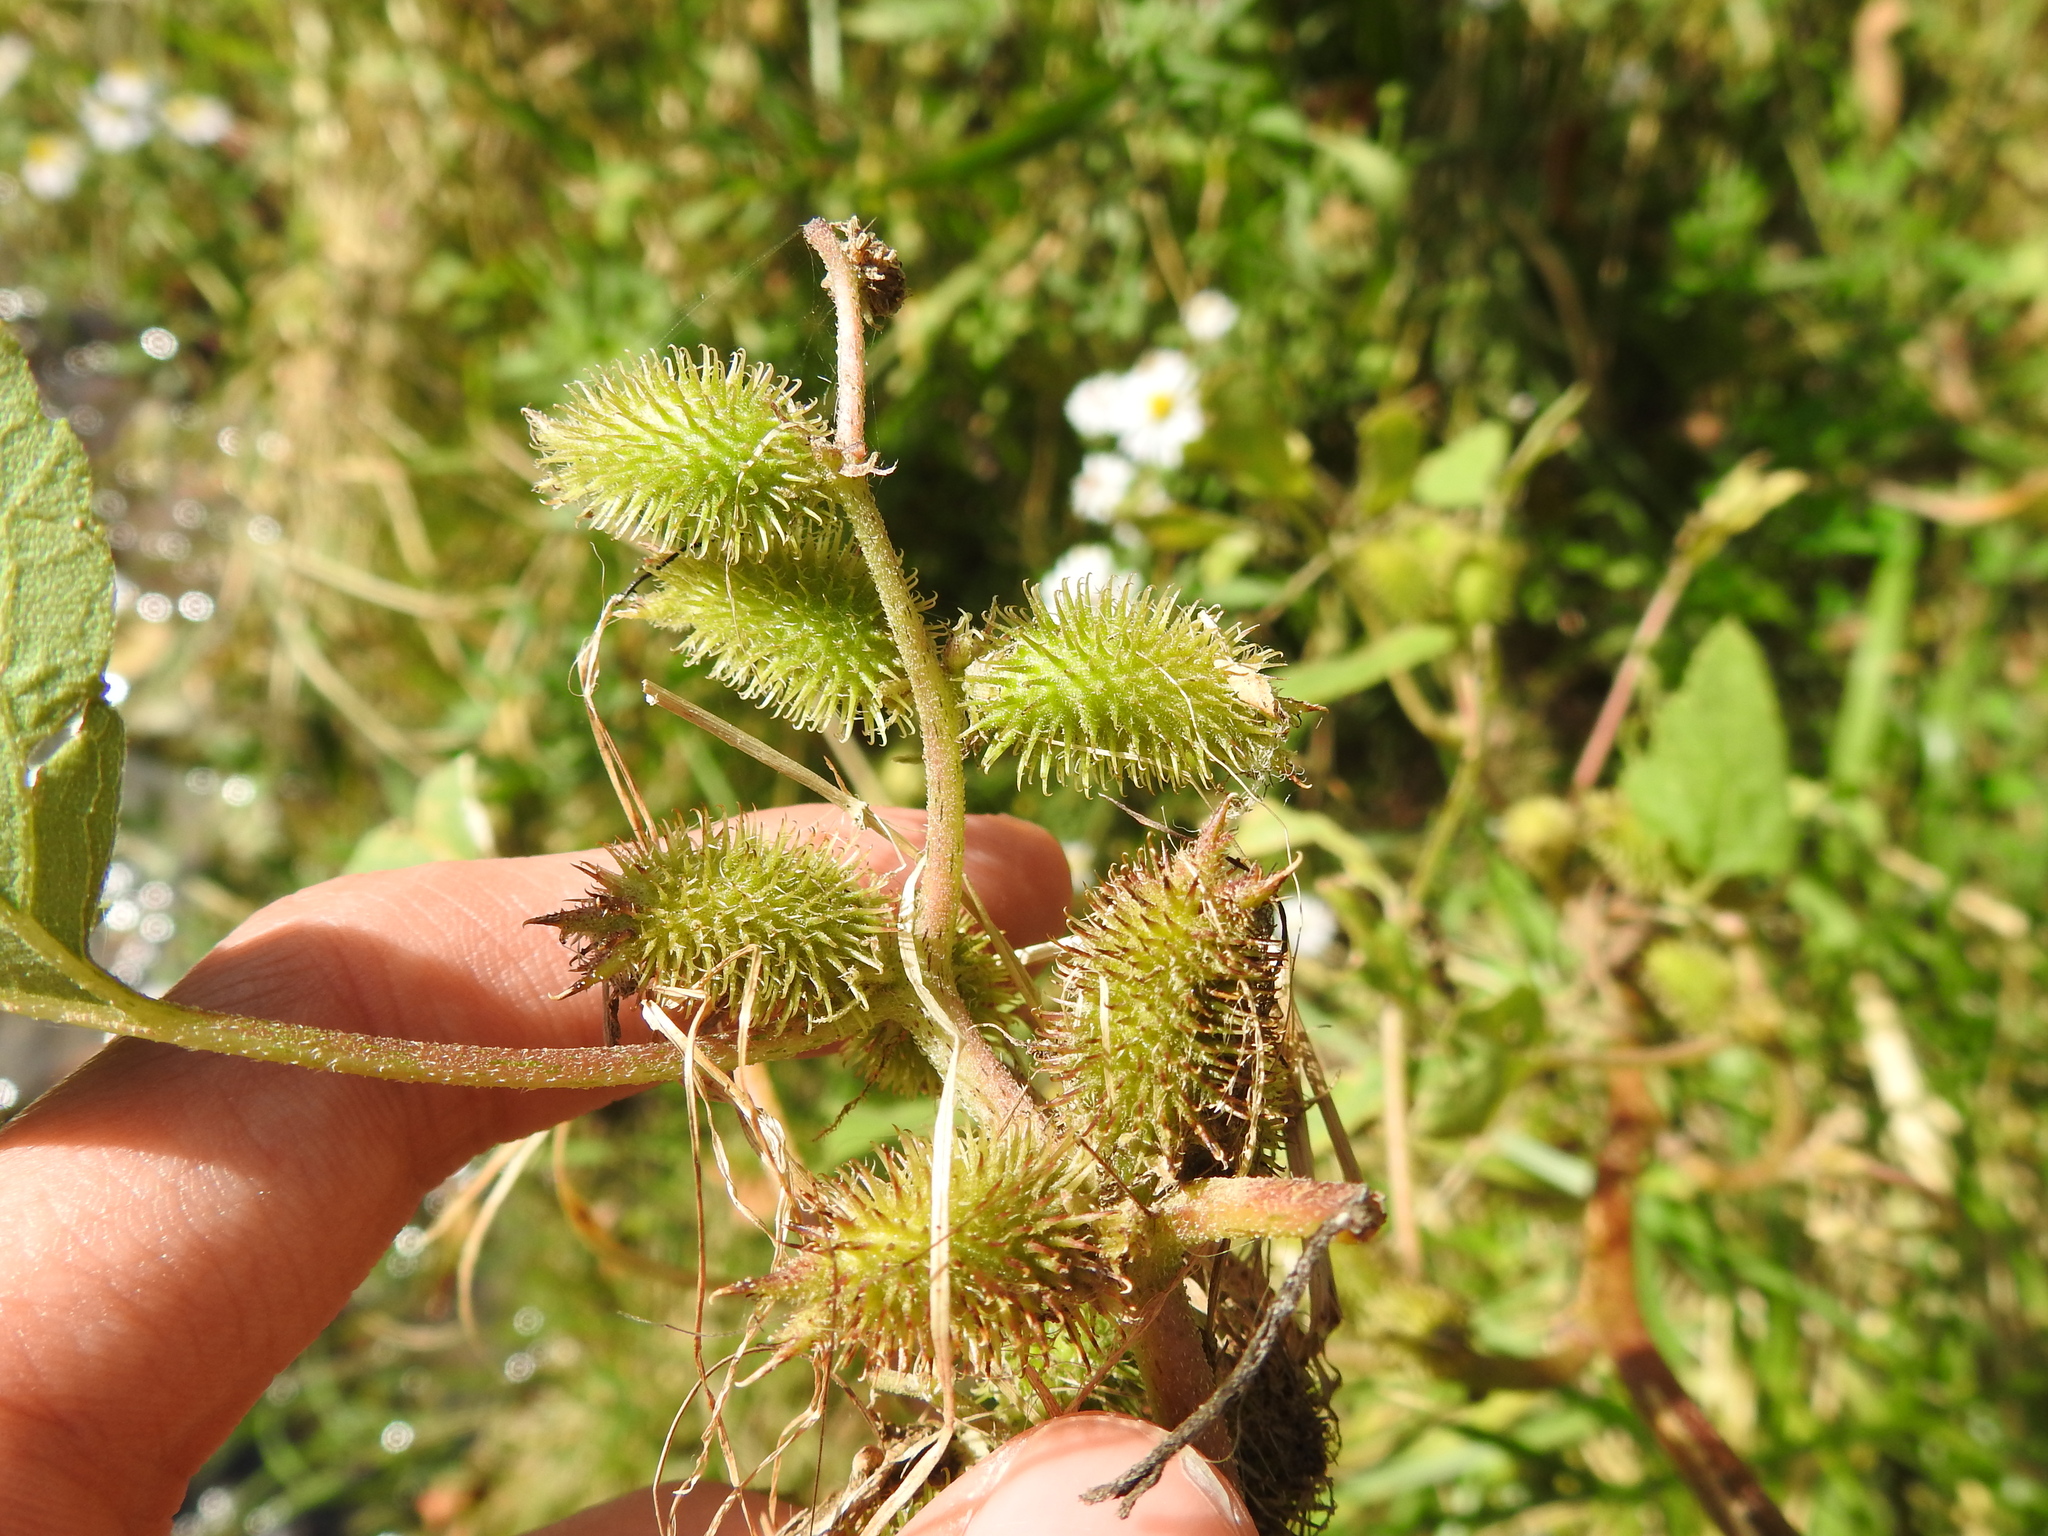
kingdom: Plantae
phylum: Tracheophyta
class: Magnoliopsida
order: Asterales
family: Asteraceae
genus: Xanthium
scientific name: Xanthium strumarium
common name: Rough cocklebur
